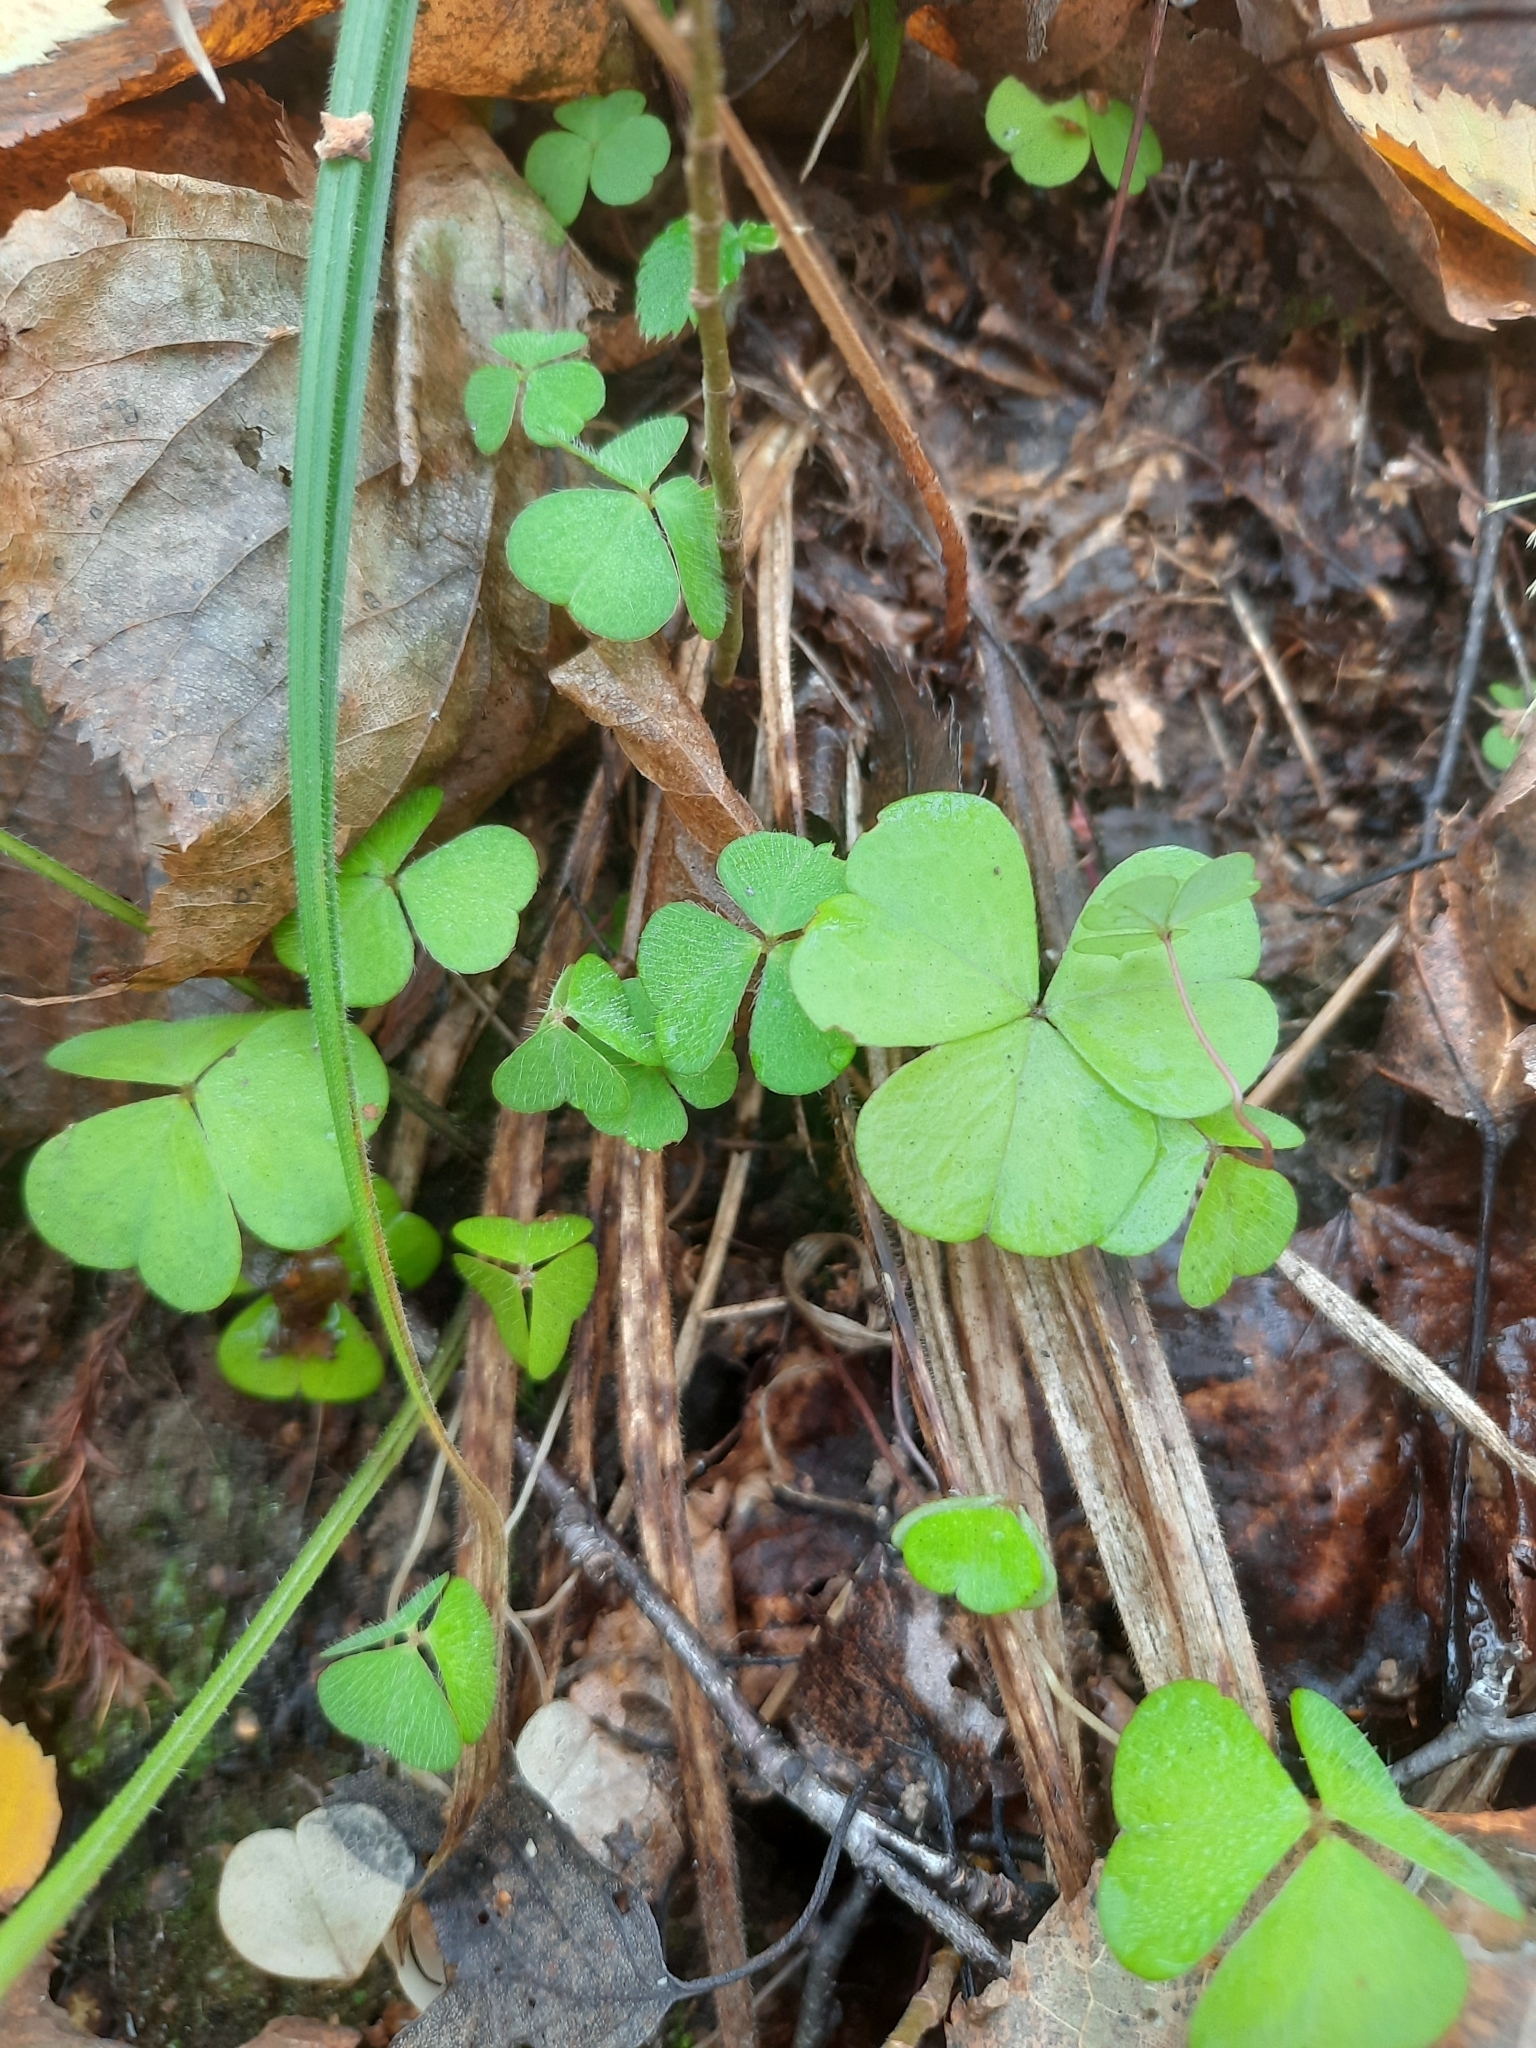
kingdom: Plantae
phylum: Tracheophyta
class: Magnoliopsida
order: Oxalidales
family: Oxalidaceae
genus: Oxalis
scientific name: Oxalis acetosella
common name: Wood-sorrel
